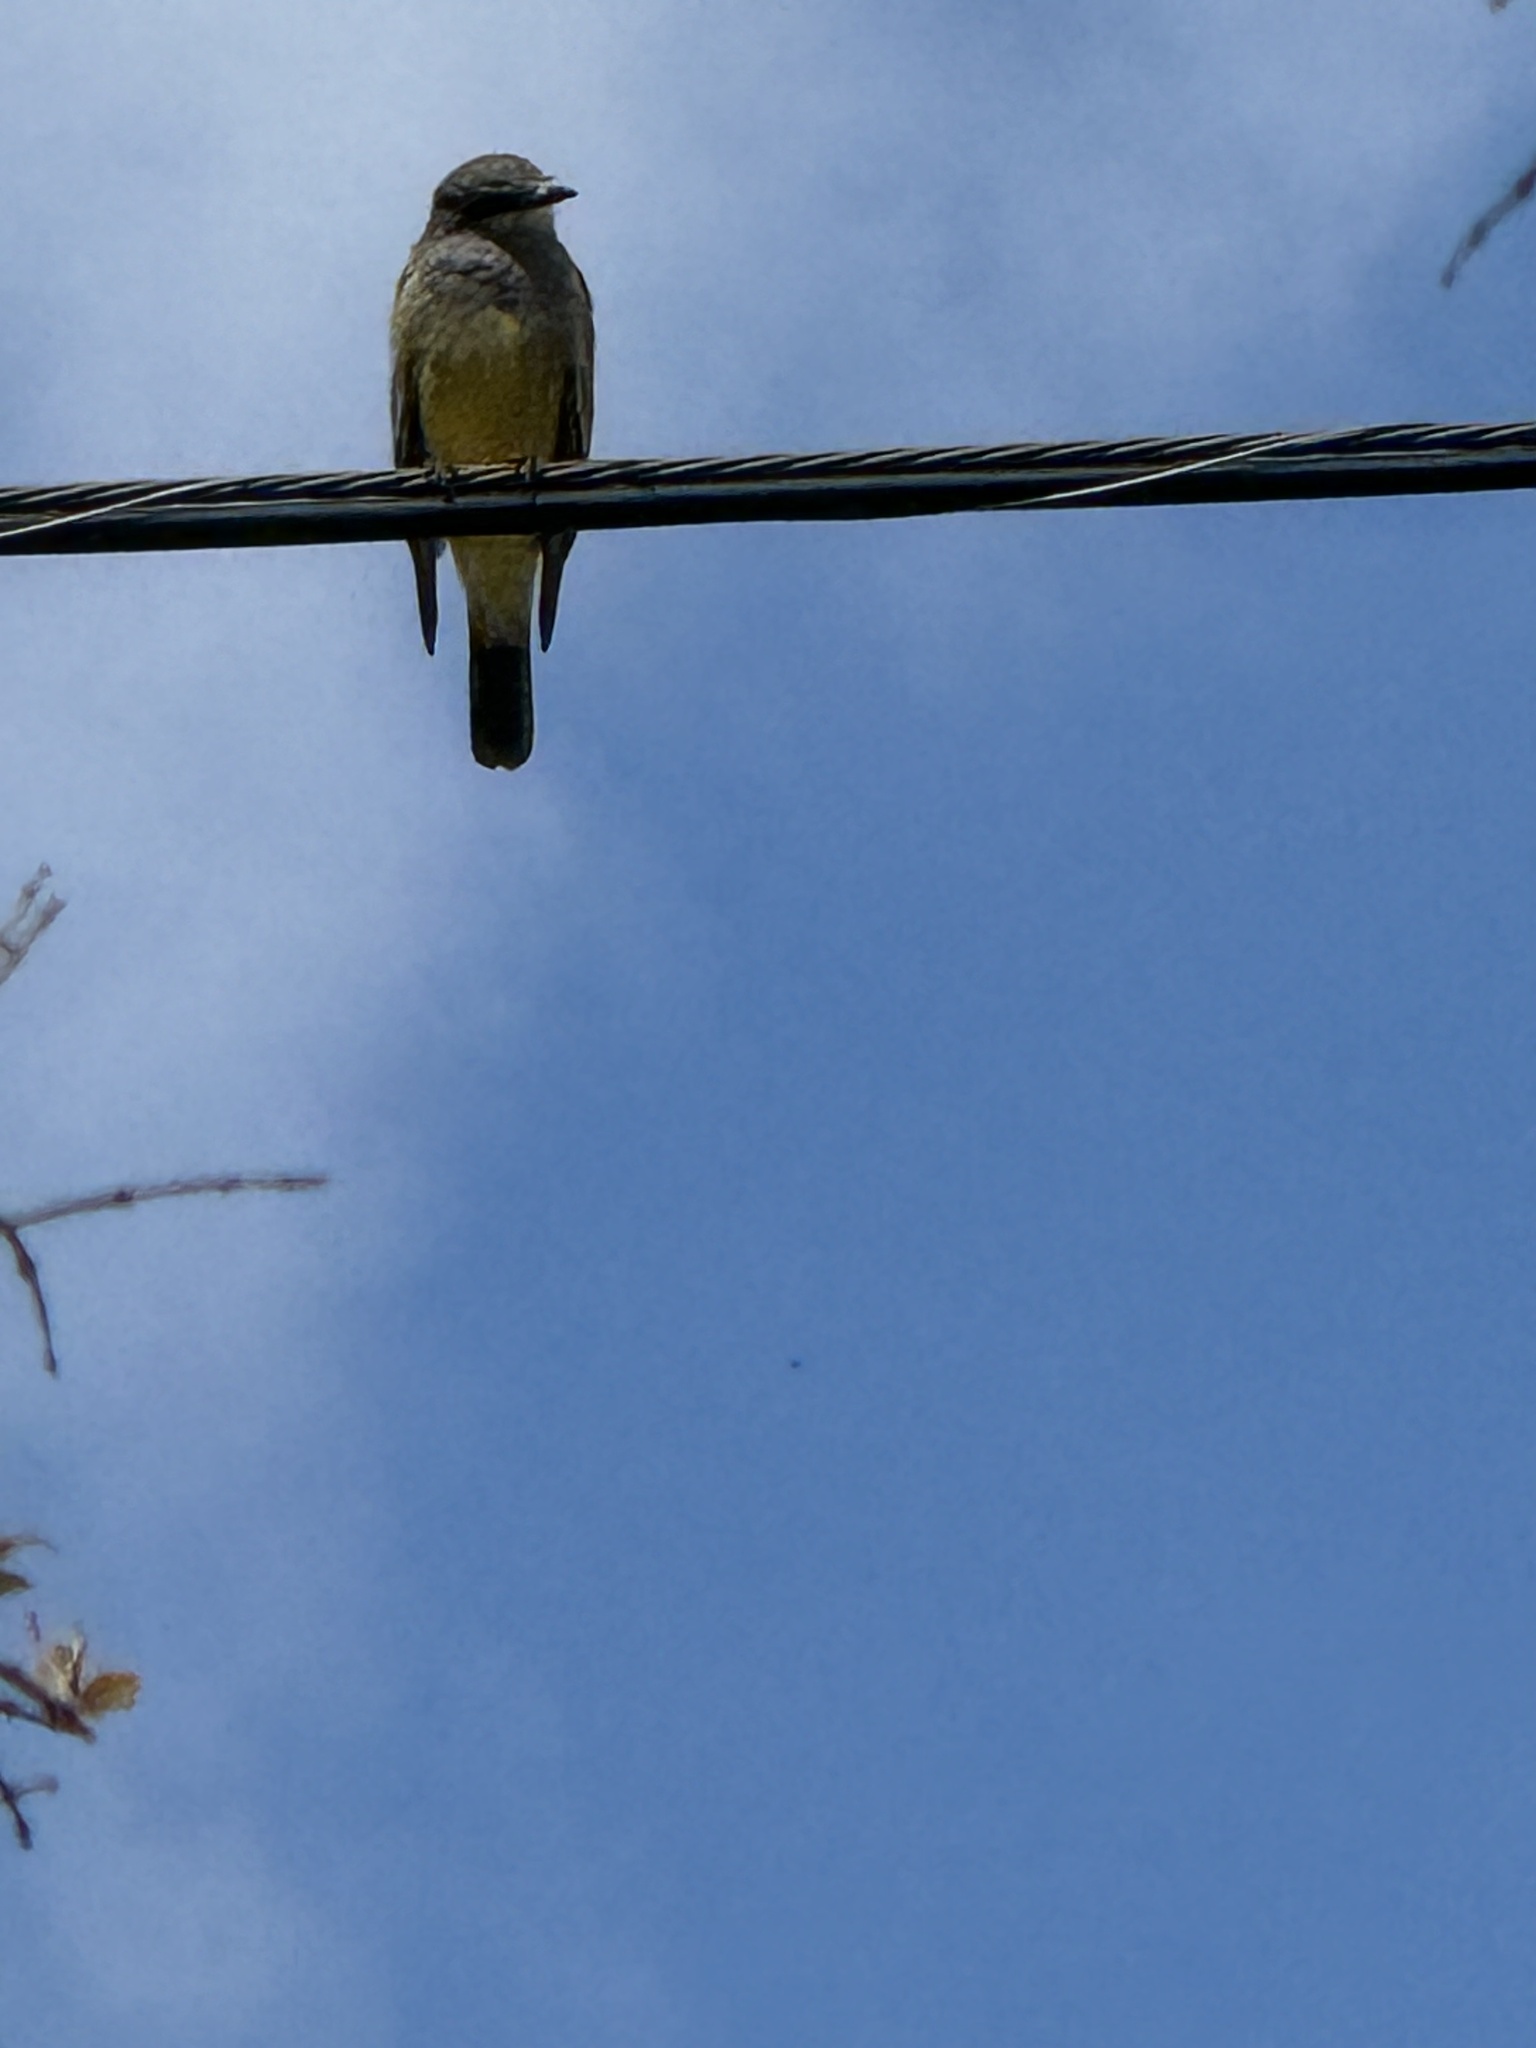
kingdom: Animalia
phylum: Chordata
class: Aves
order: Passeriformes
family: Tyrannidae
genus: Tyrannus
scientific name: Tyrannus vociferans
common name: Cassin's kingbird
